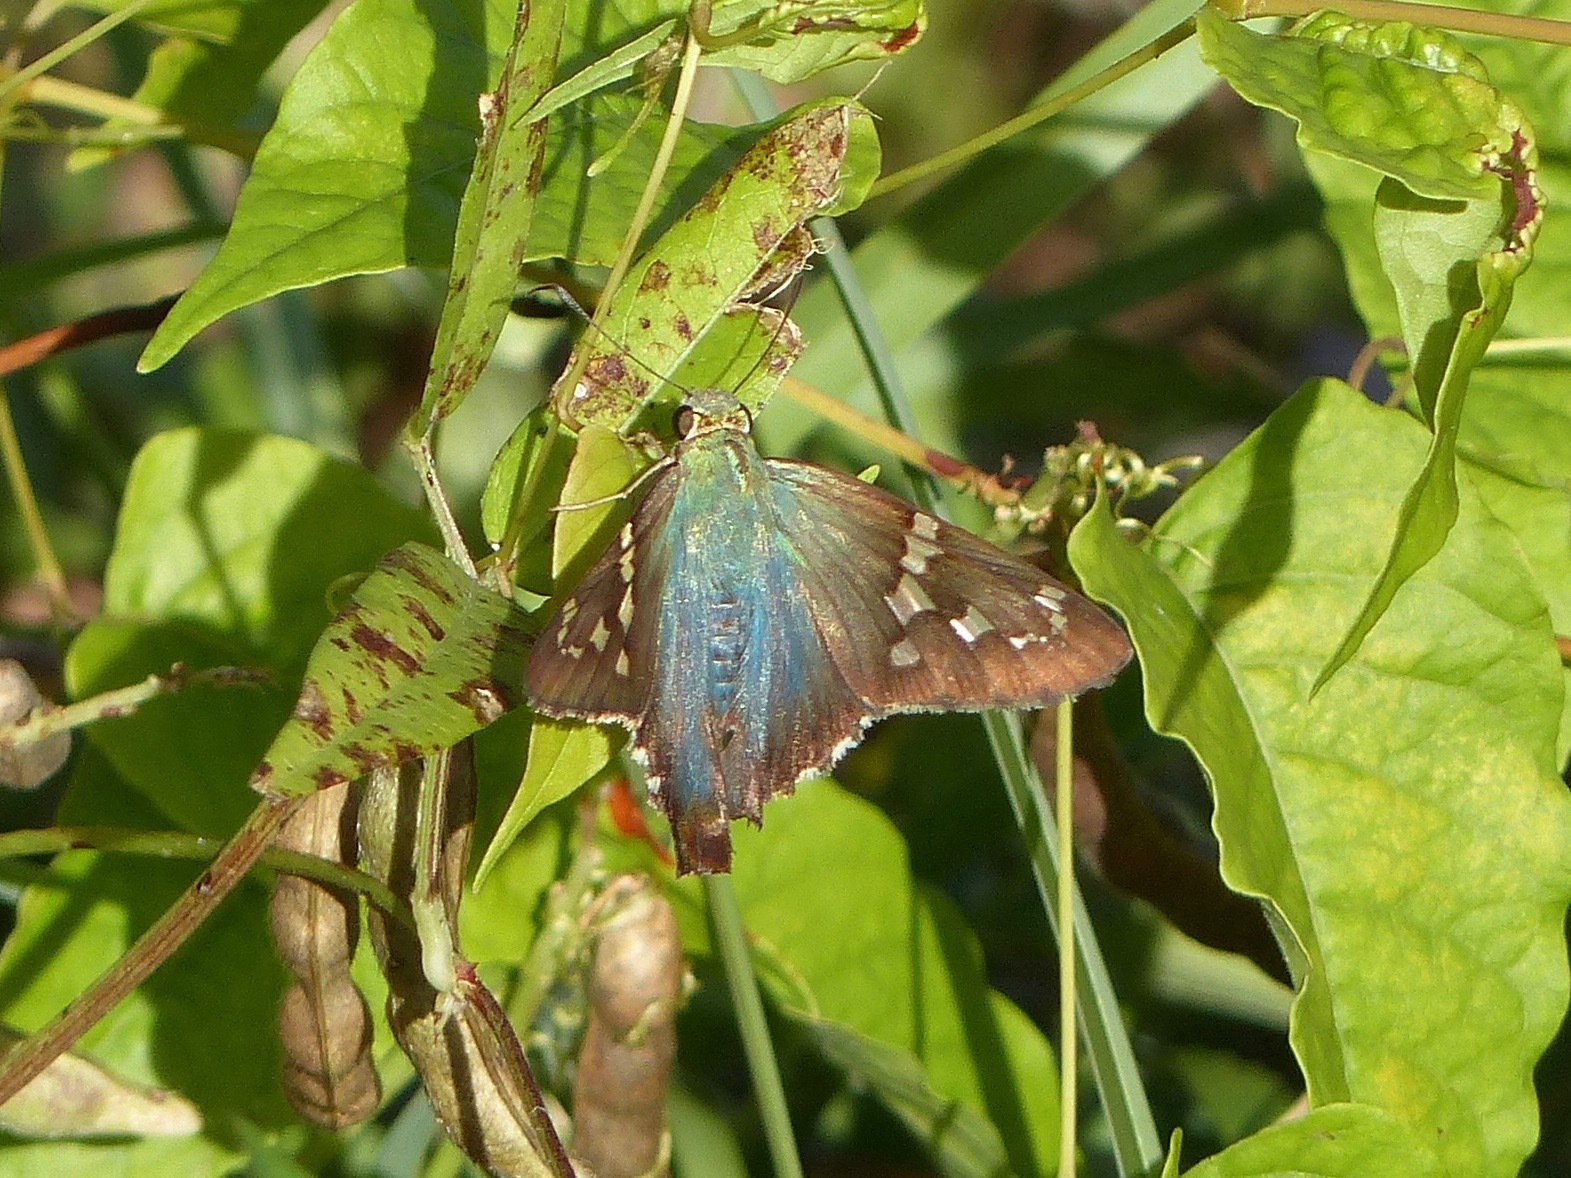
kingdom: Animalia
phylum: Arthropoda
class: Insecta
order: Lepidoptera
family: Hesperiidae
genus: Urbanus
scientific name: Urbanus proteus
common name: Long-tailed skipper
